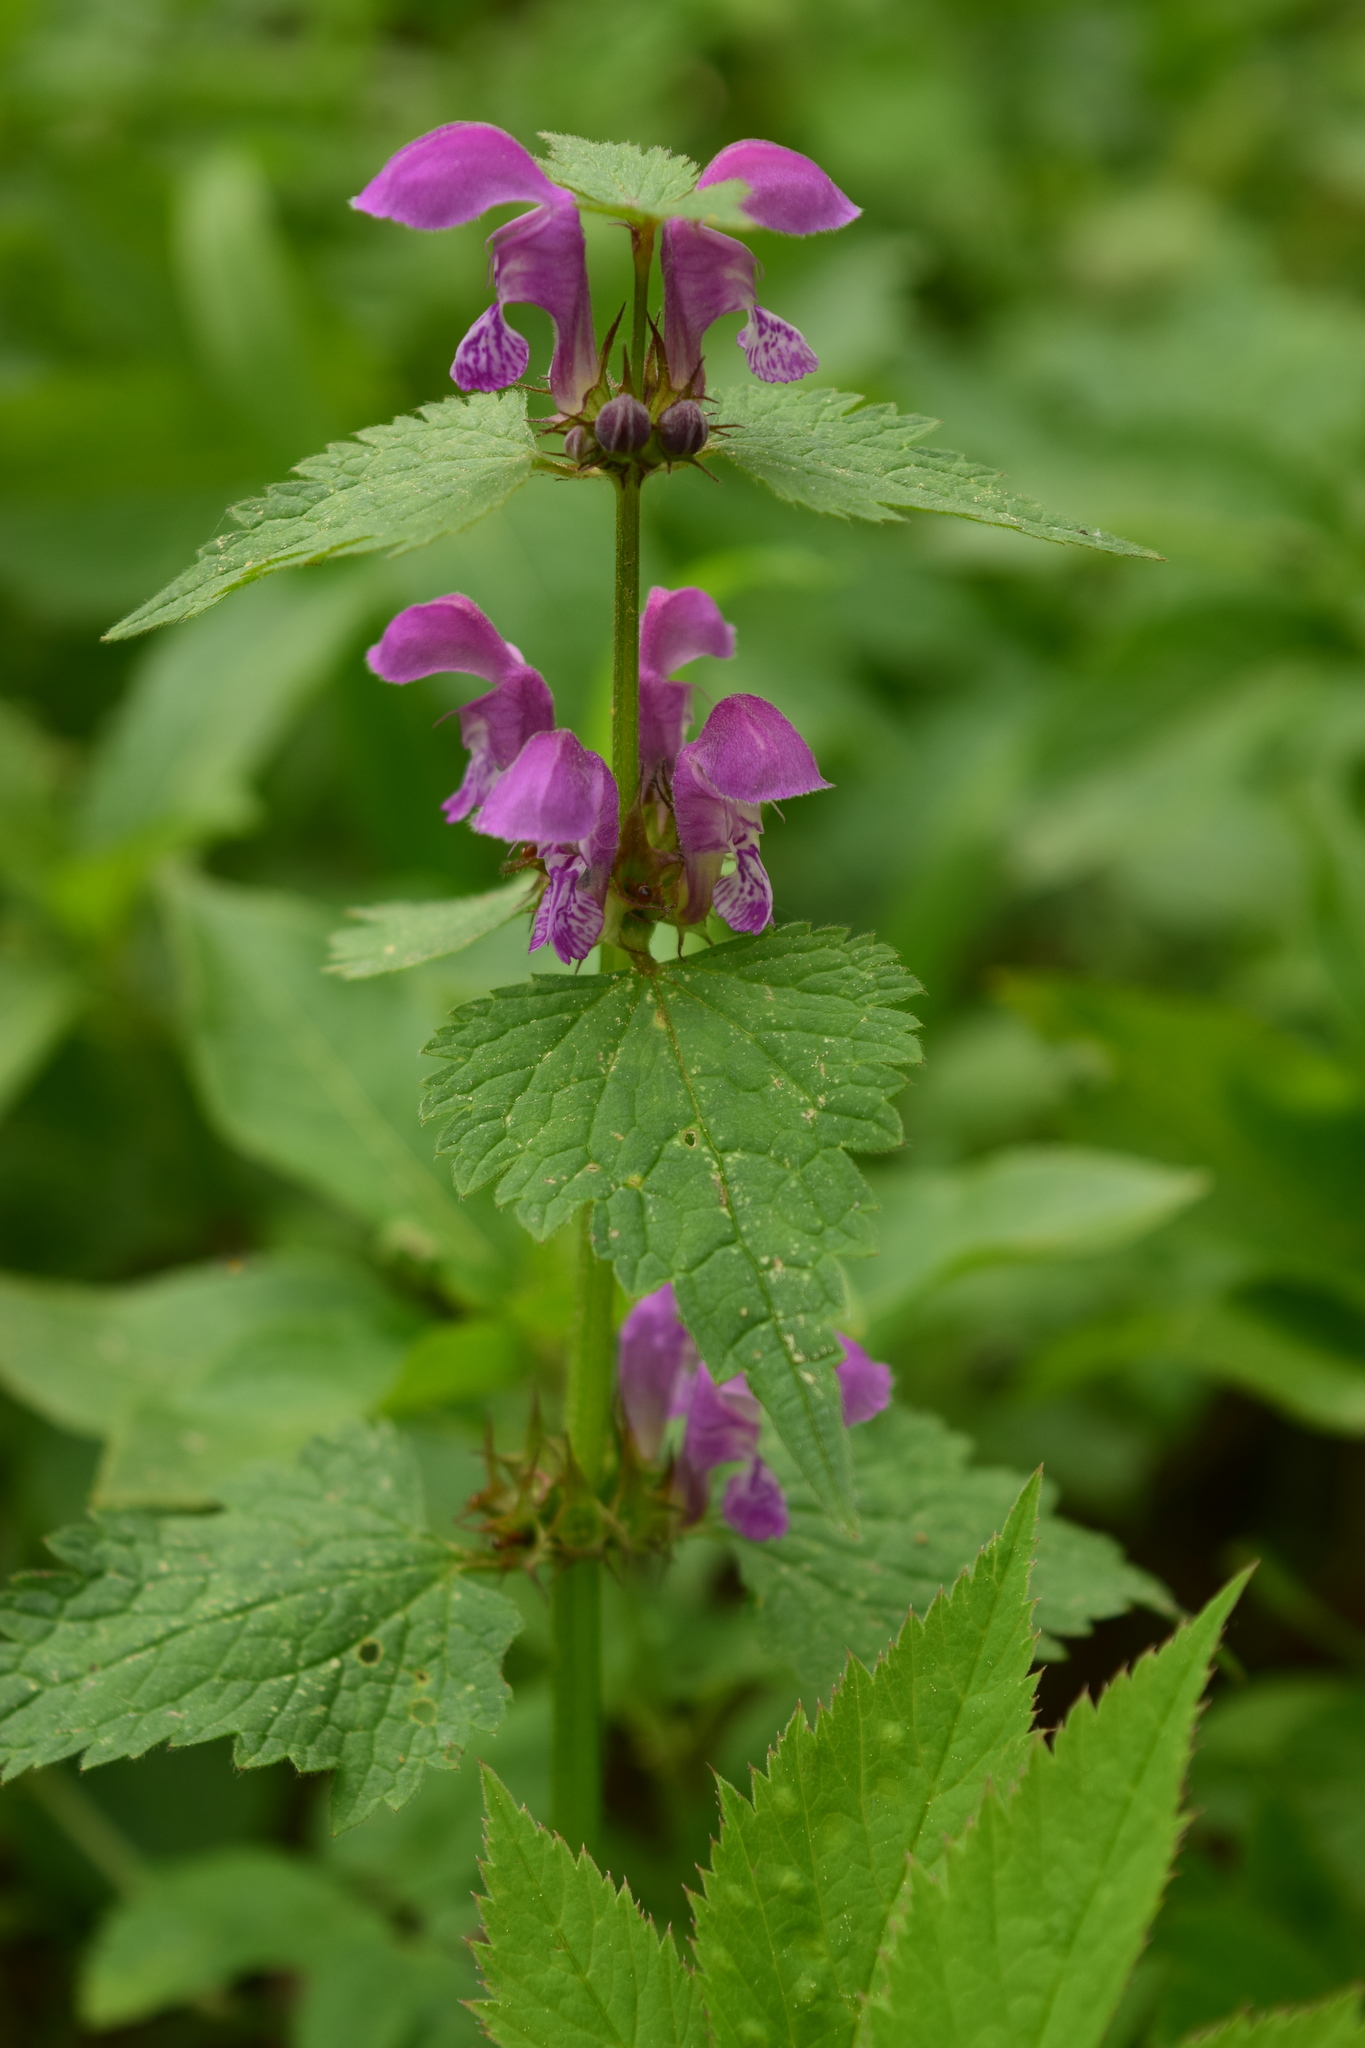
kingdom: Plantae
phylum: Tracheophyta
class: Magnoliopsida
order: Lamiales
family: Lamiaceae
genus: Lamium
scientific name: Lamium maculatum
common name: Spotted dead-nettle
